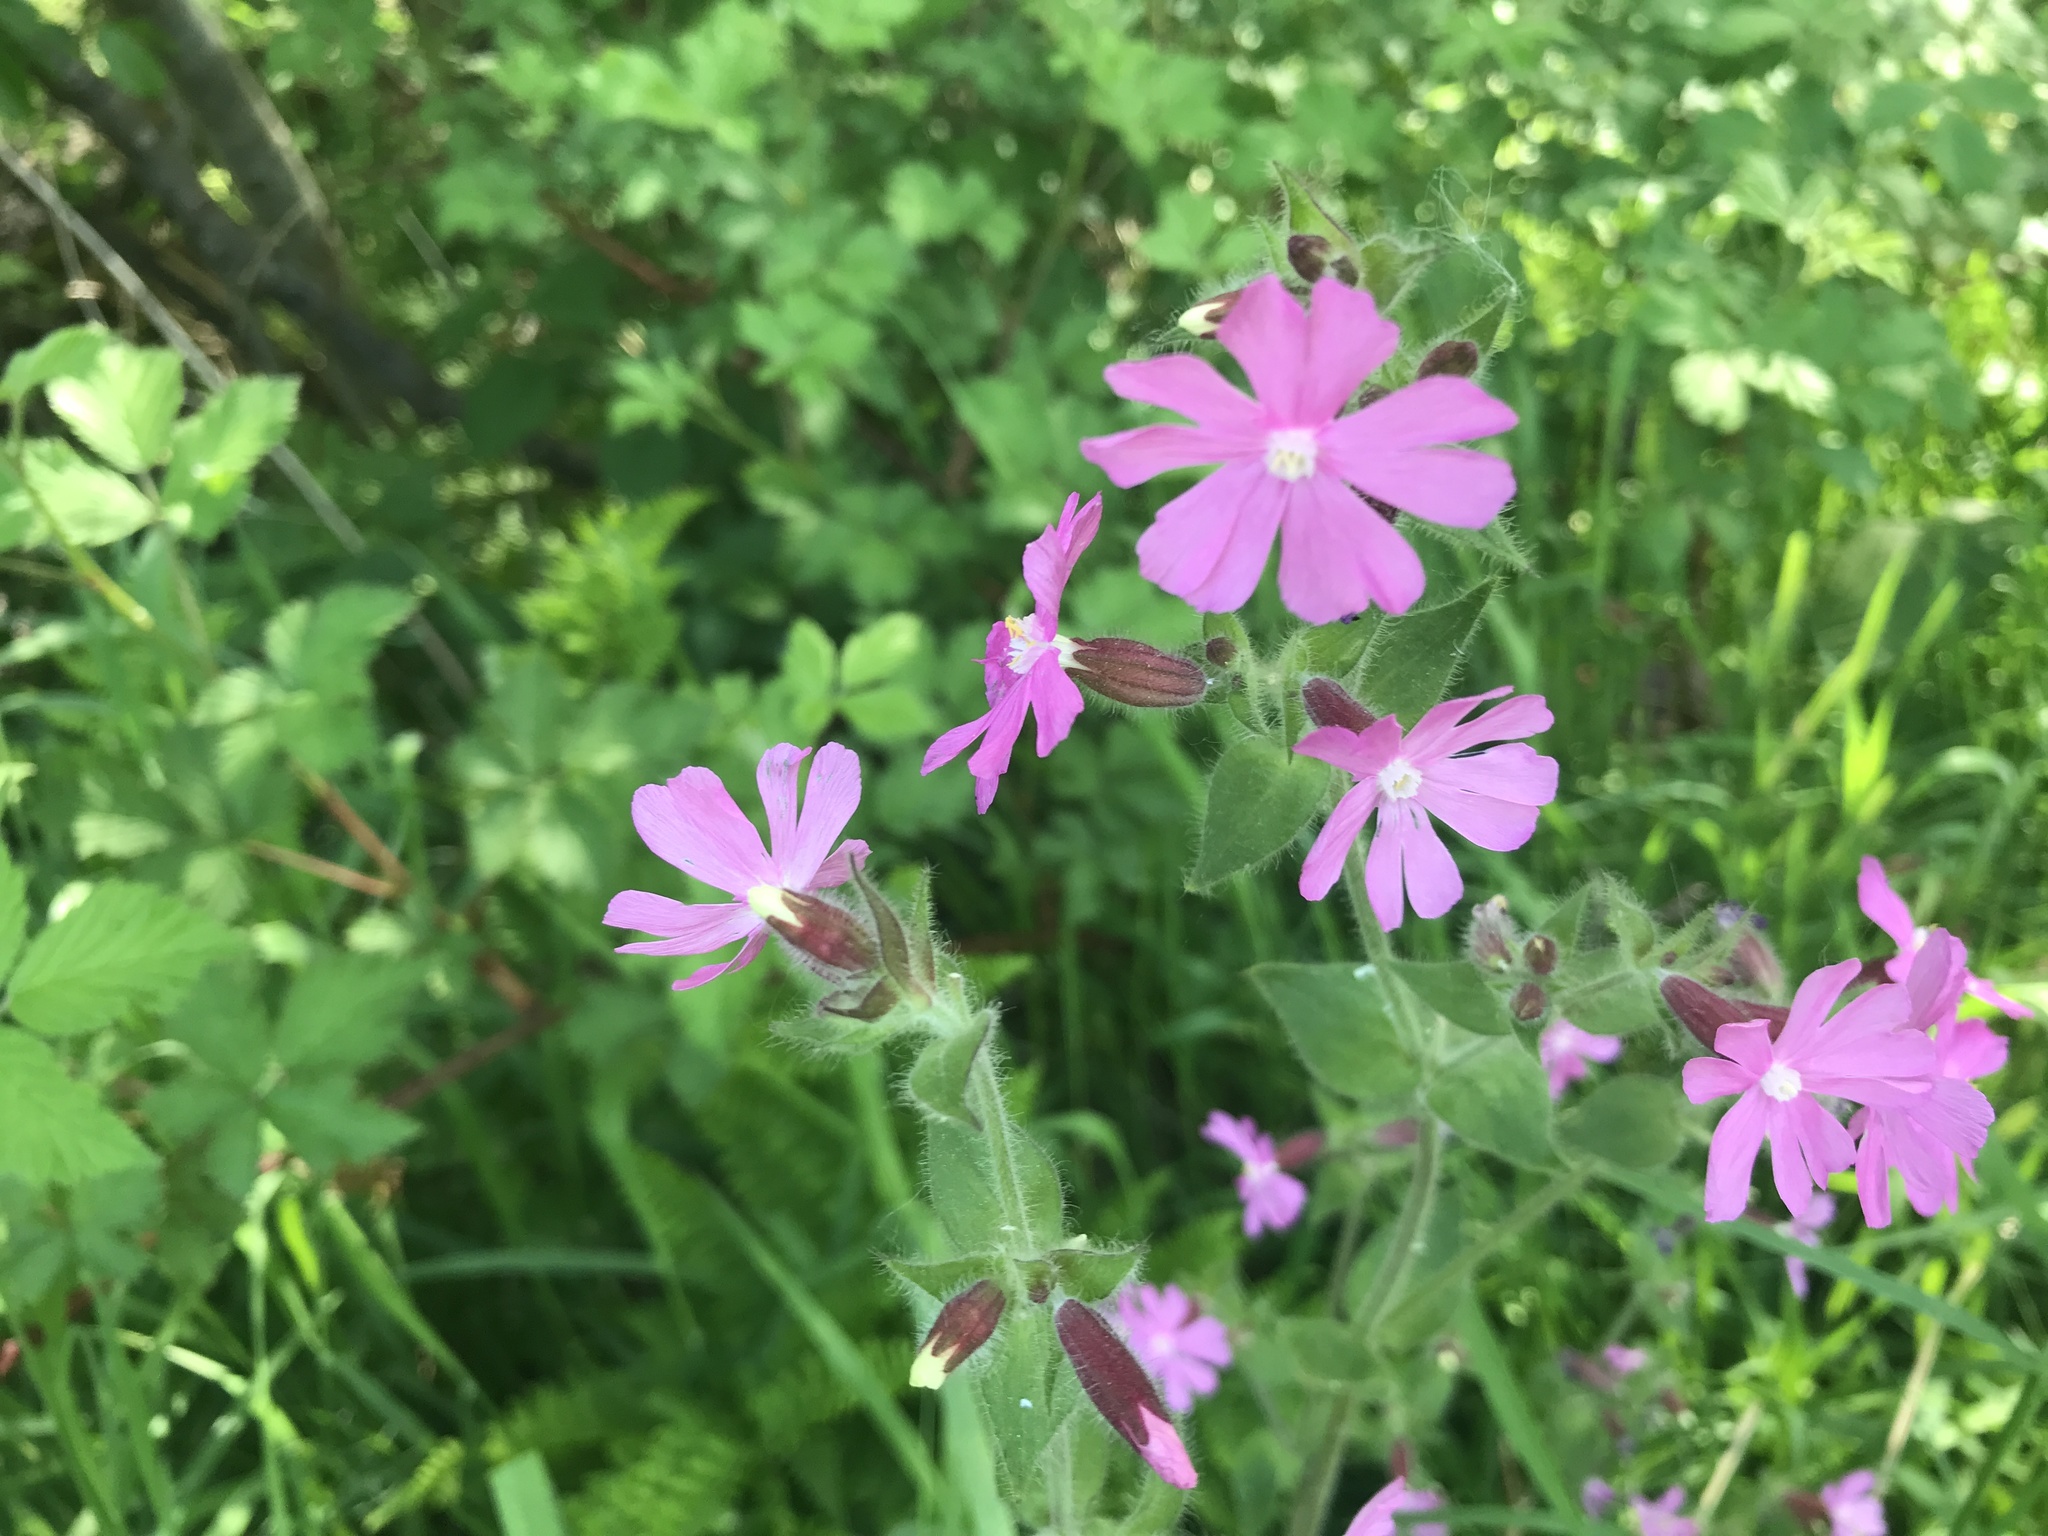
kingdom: Plantae
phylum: Tracheophyta
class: Magnoliopsida
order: Caryophyllales
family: Caryophyllaceae
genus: Silene
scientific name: Silene dioica
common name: Red campion
